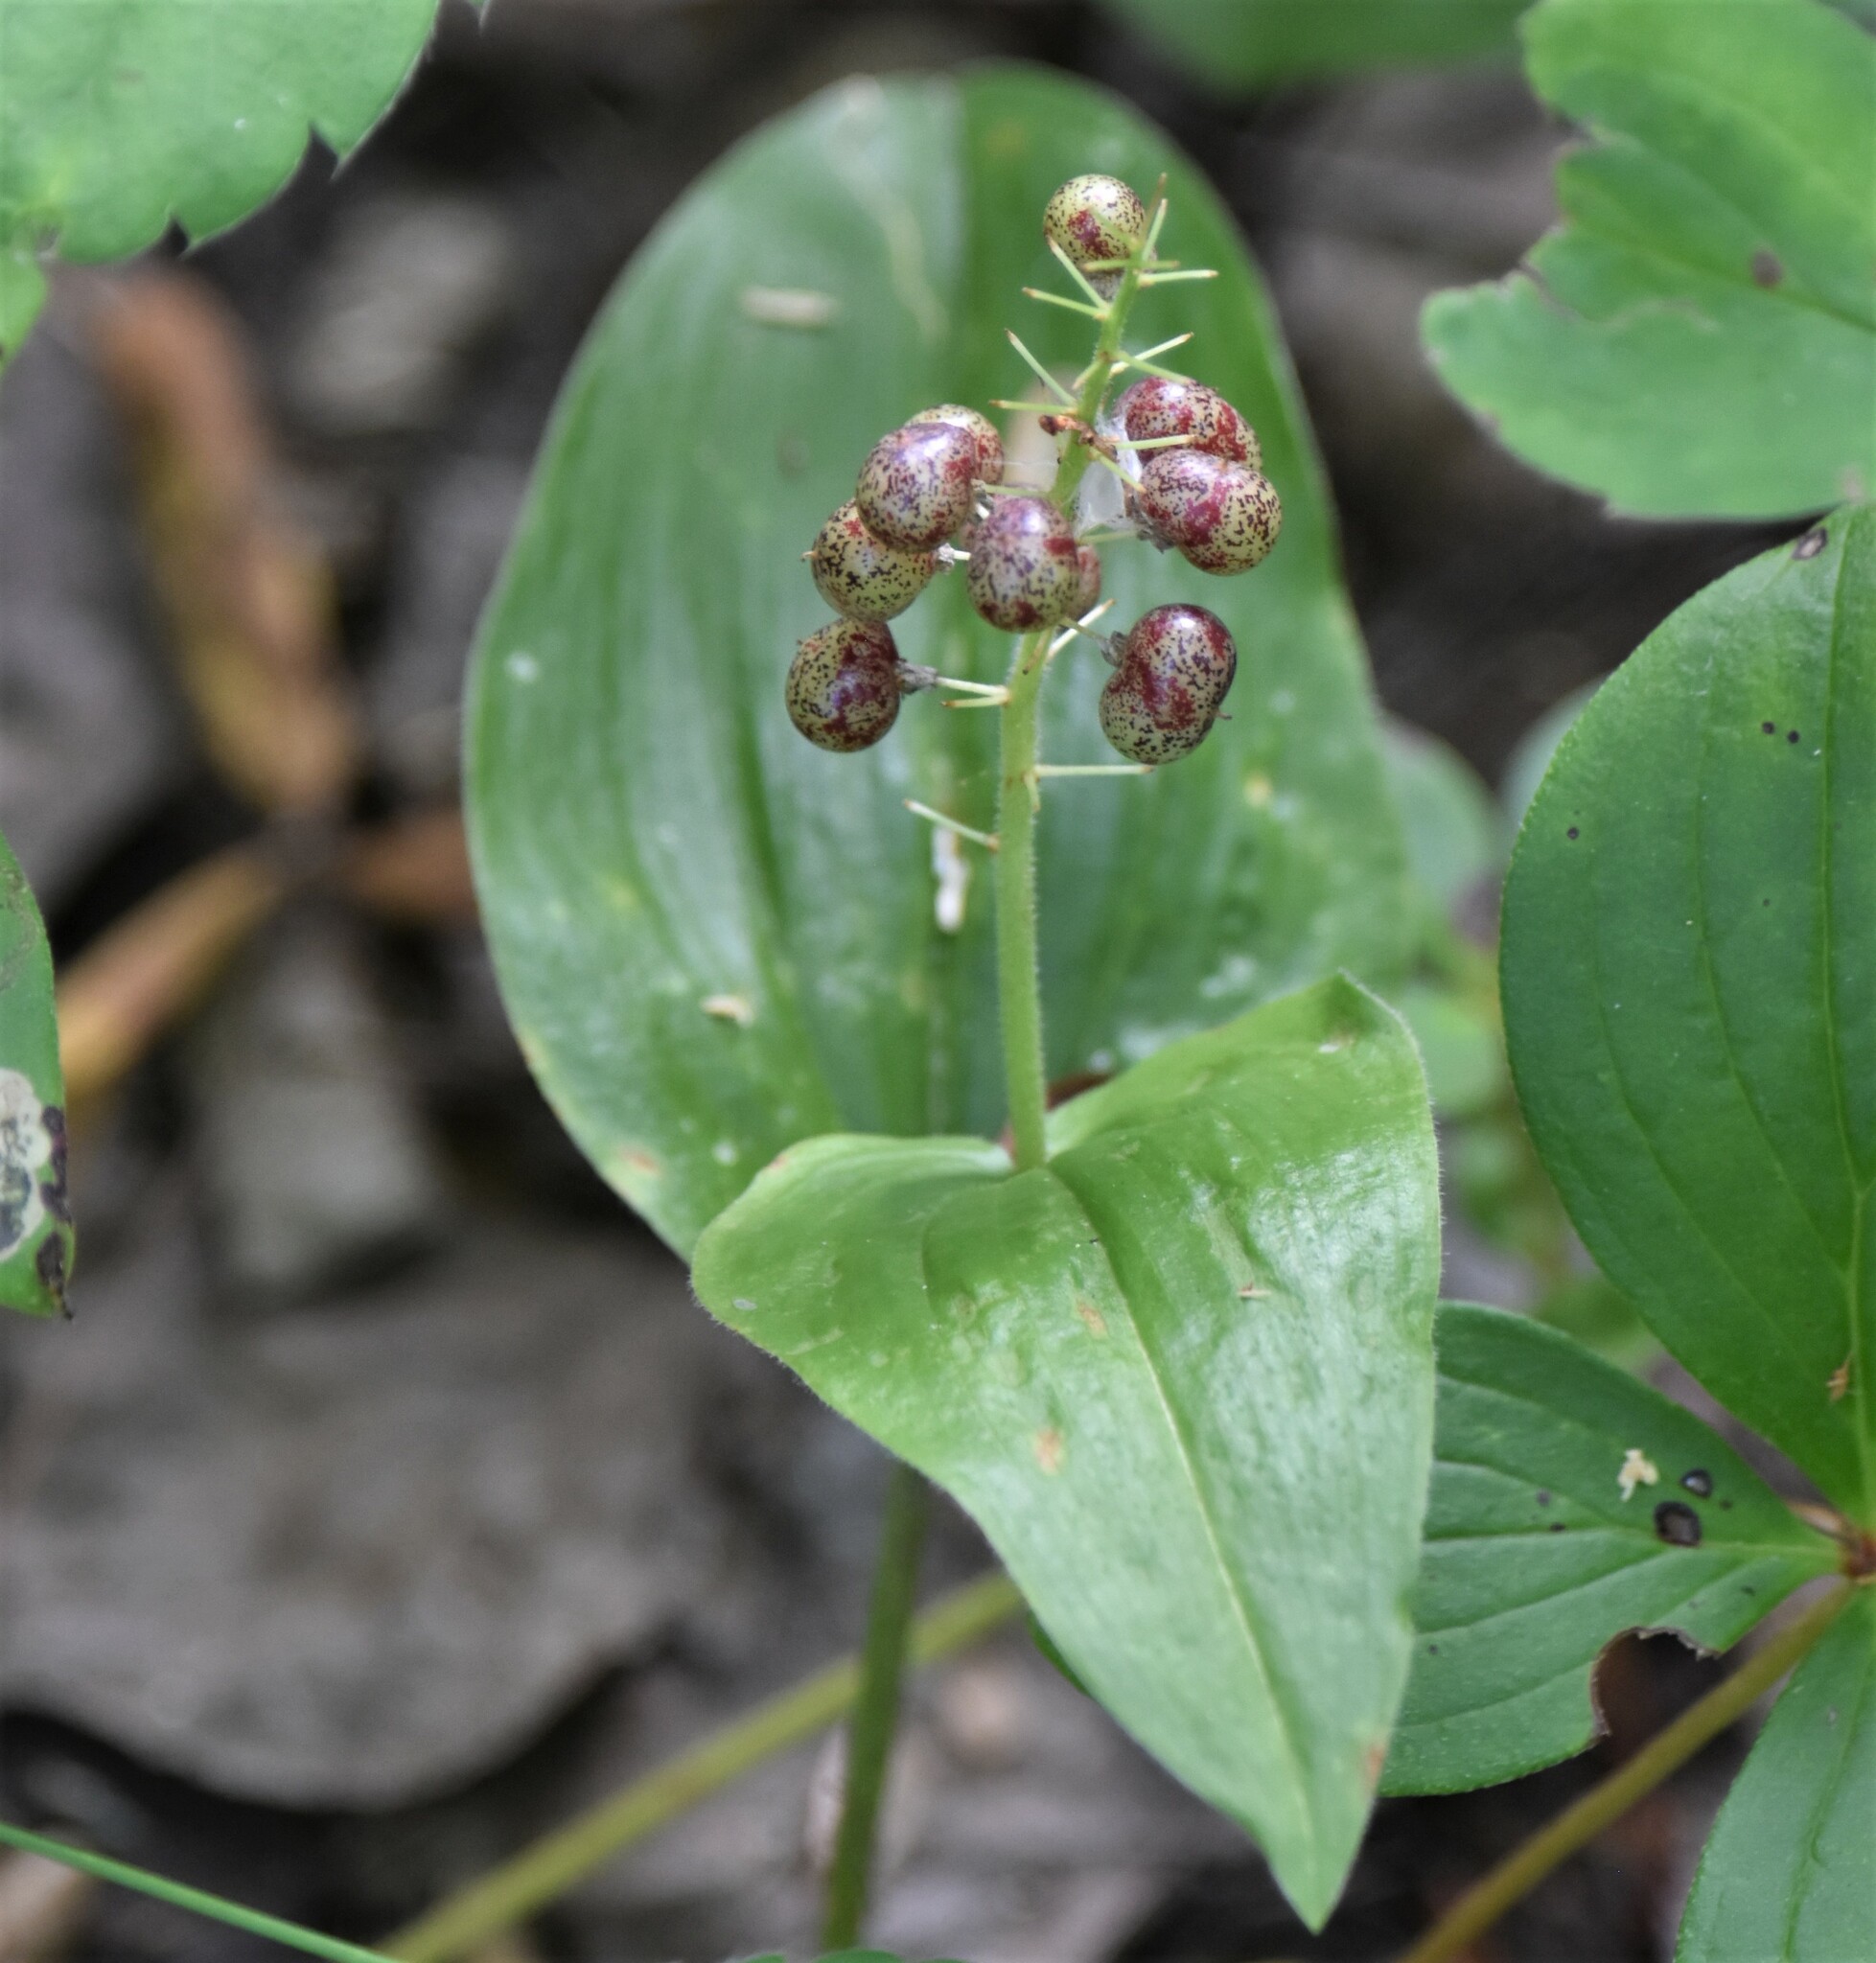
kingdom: Plantae
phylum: Tracheophyta
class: Liliopsida
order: Asparagales
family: Asparagaceae
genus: Maianthemum
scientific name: Maianthemum canadense
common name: False lily-of-the-valley
